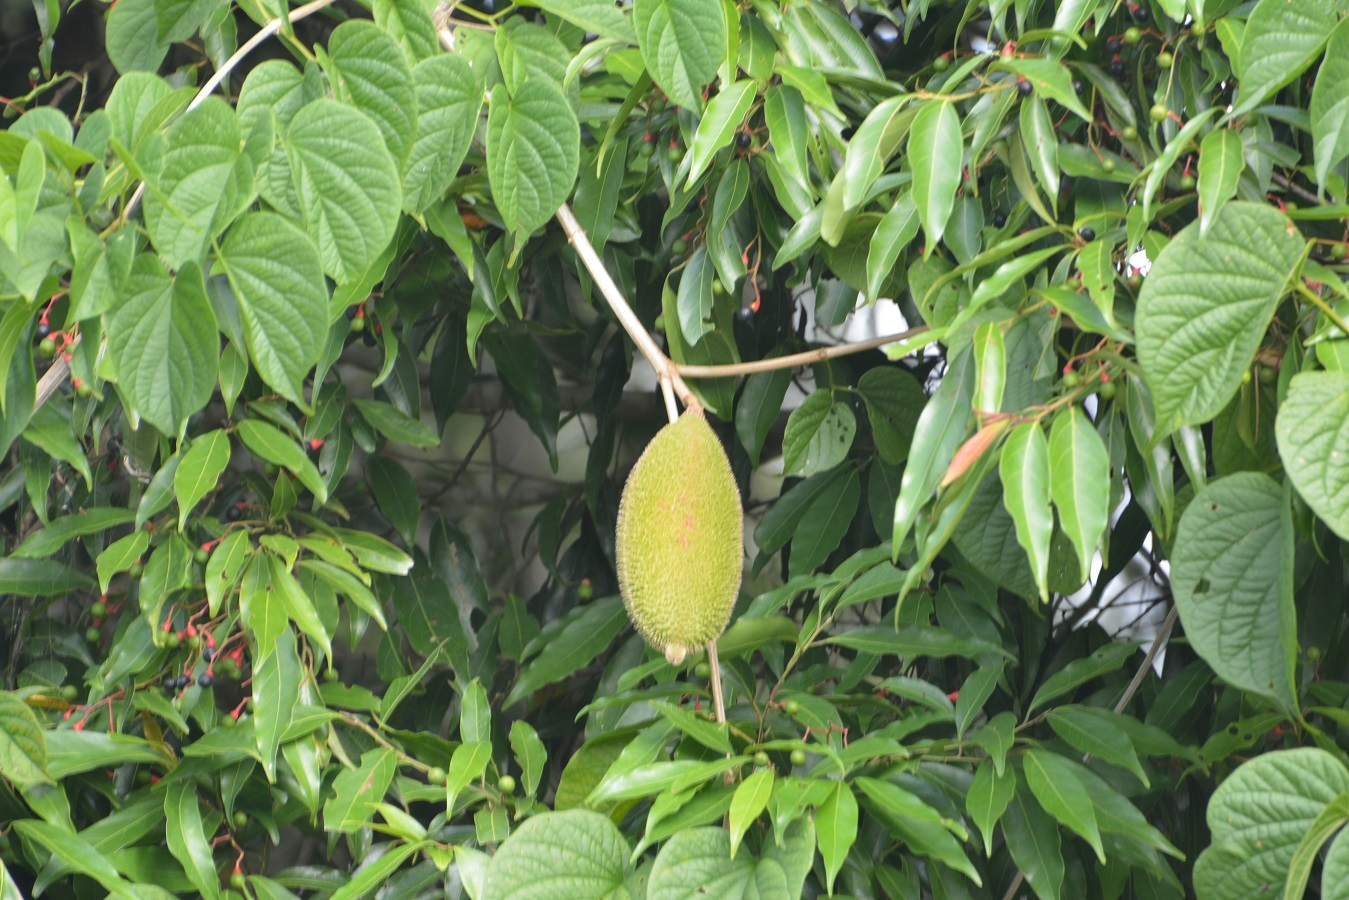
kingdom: Plantae
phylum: Tracheophyta
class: Magnoliopsida
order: Lamiales
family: Bignoniaceae
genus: Amphilophium
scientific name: Amphilophium crucigerum
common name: Monkey comb
